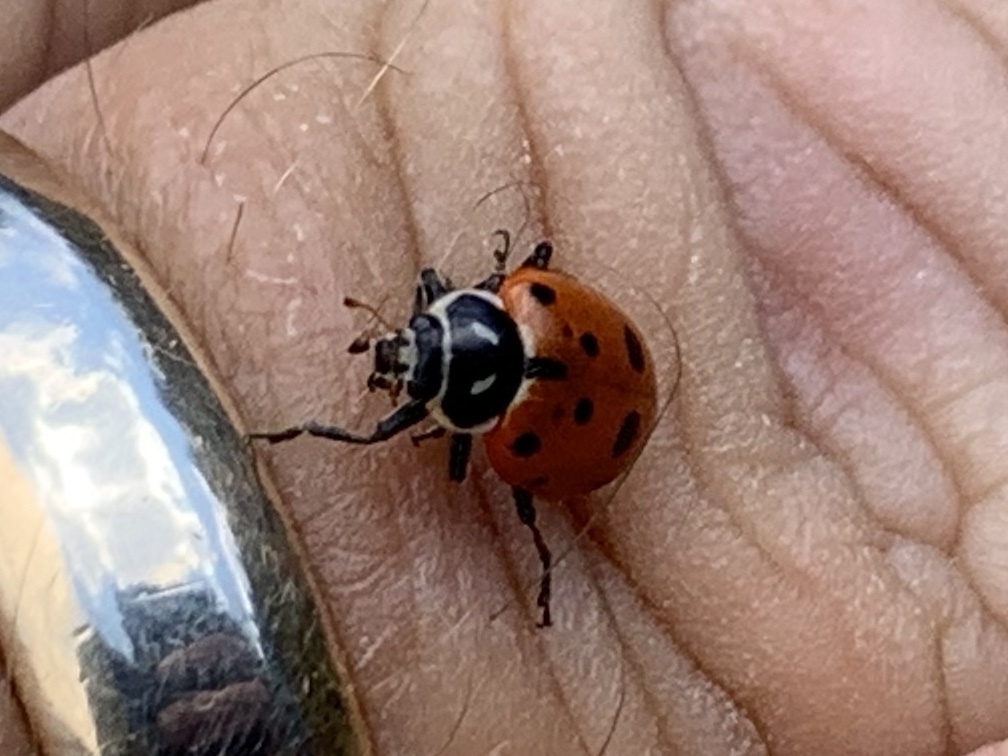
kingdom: Animalia
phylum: Arthropoda
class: Insecta
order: Coleoptera
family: Coccinellidae
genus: Hippodamia
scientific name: Hippodamia convergens
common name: Convergent lady beetle
